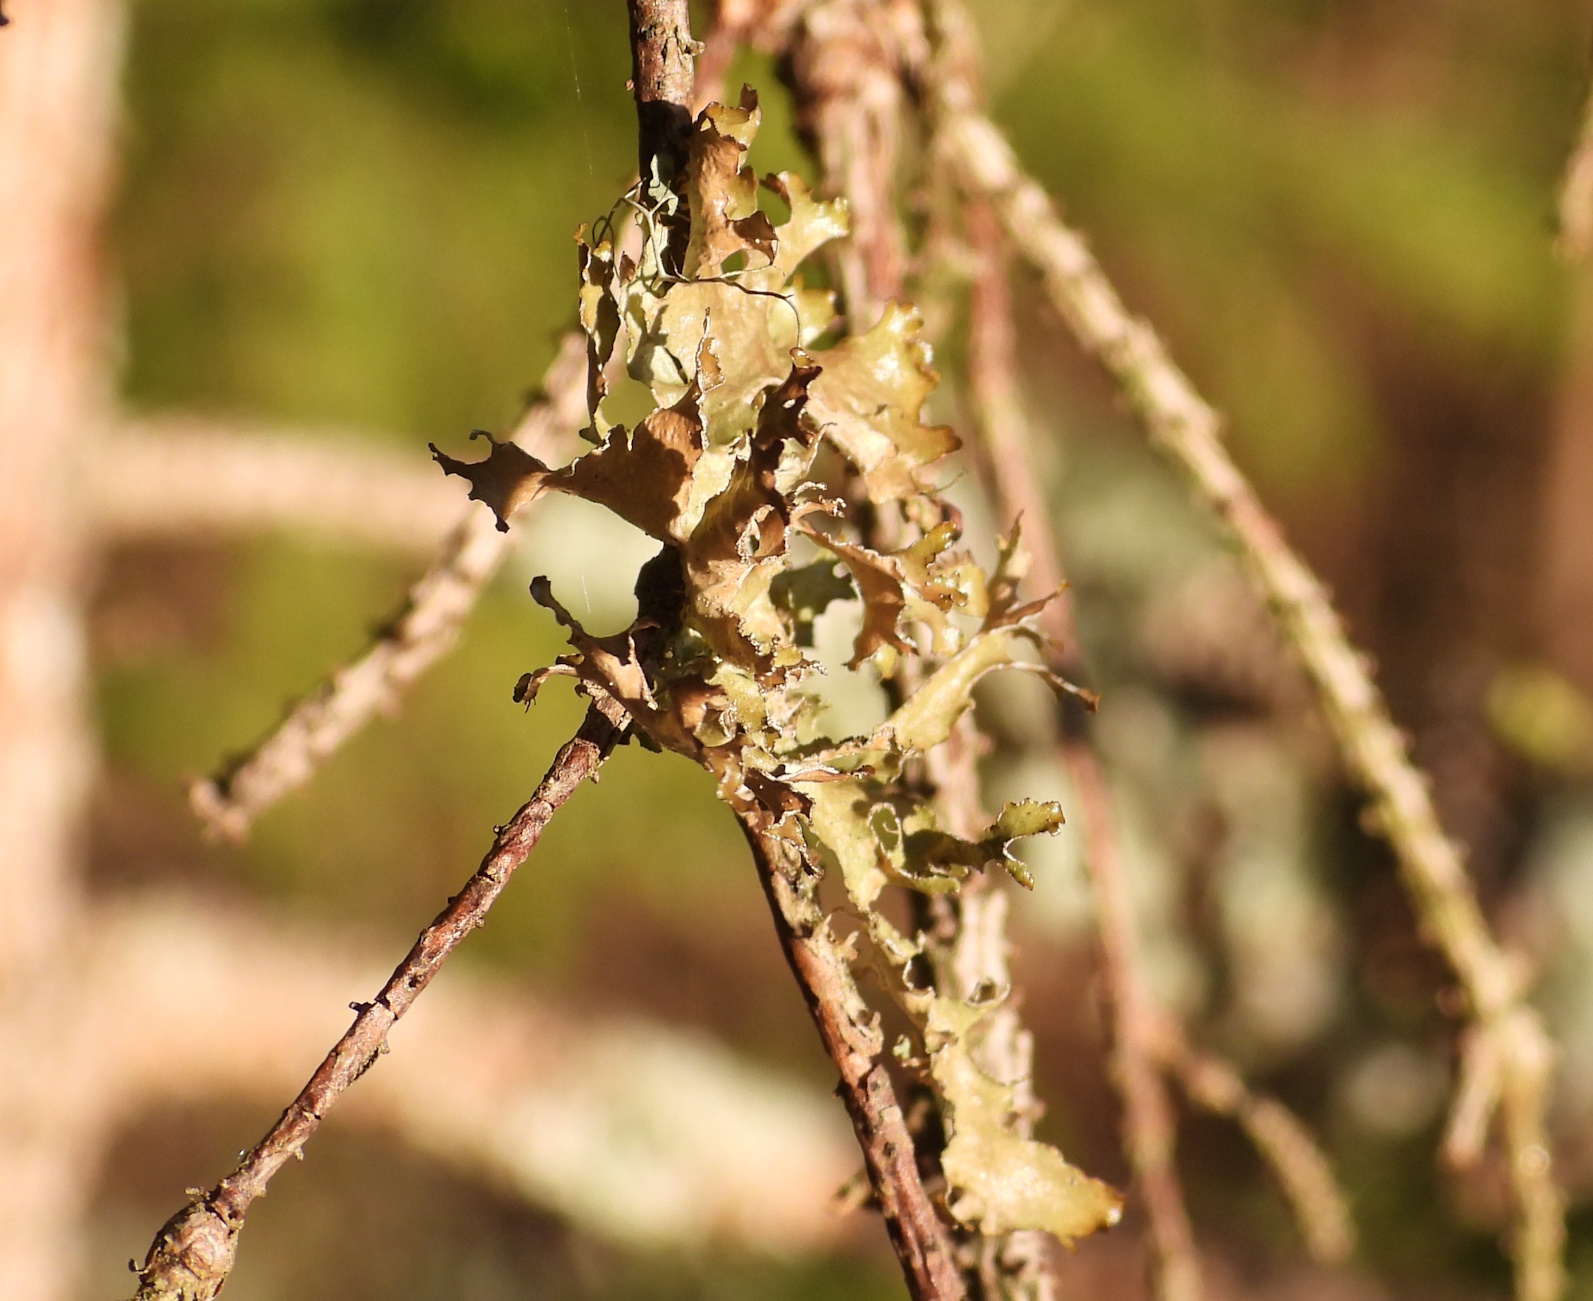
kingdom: Fungi
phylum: Ascomycota
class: Lecanoromycetes
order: Lecanorales
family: Parmeliaceae
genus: Nephromopsis
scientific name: Nephromopsis chlorophylla
